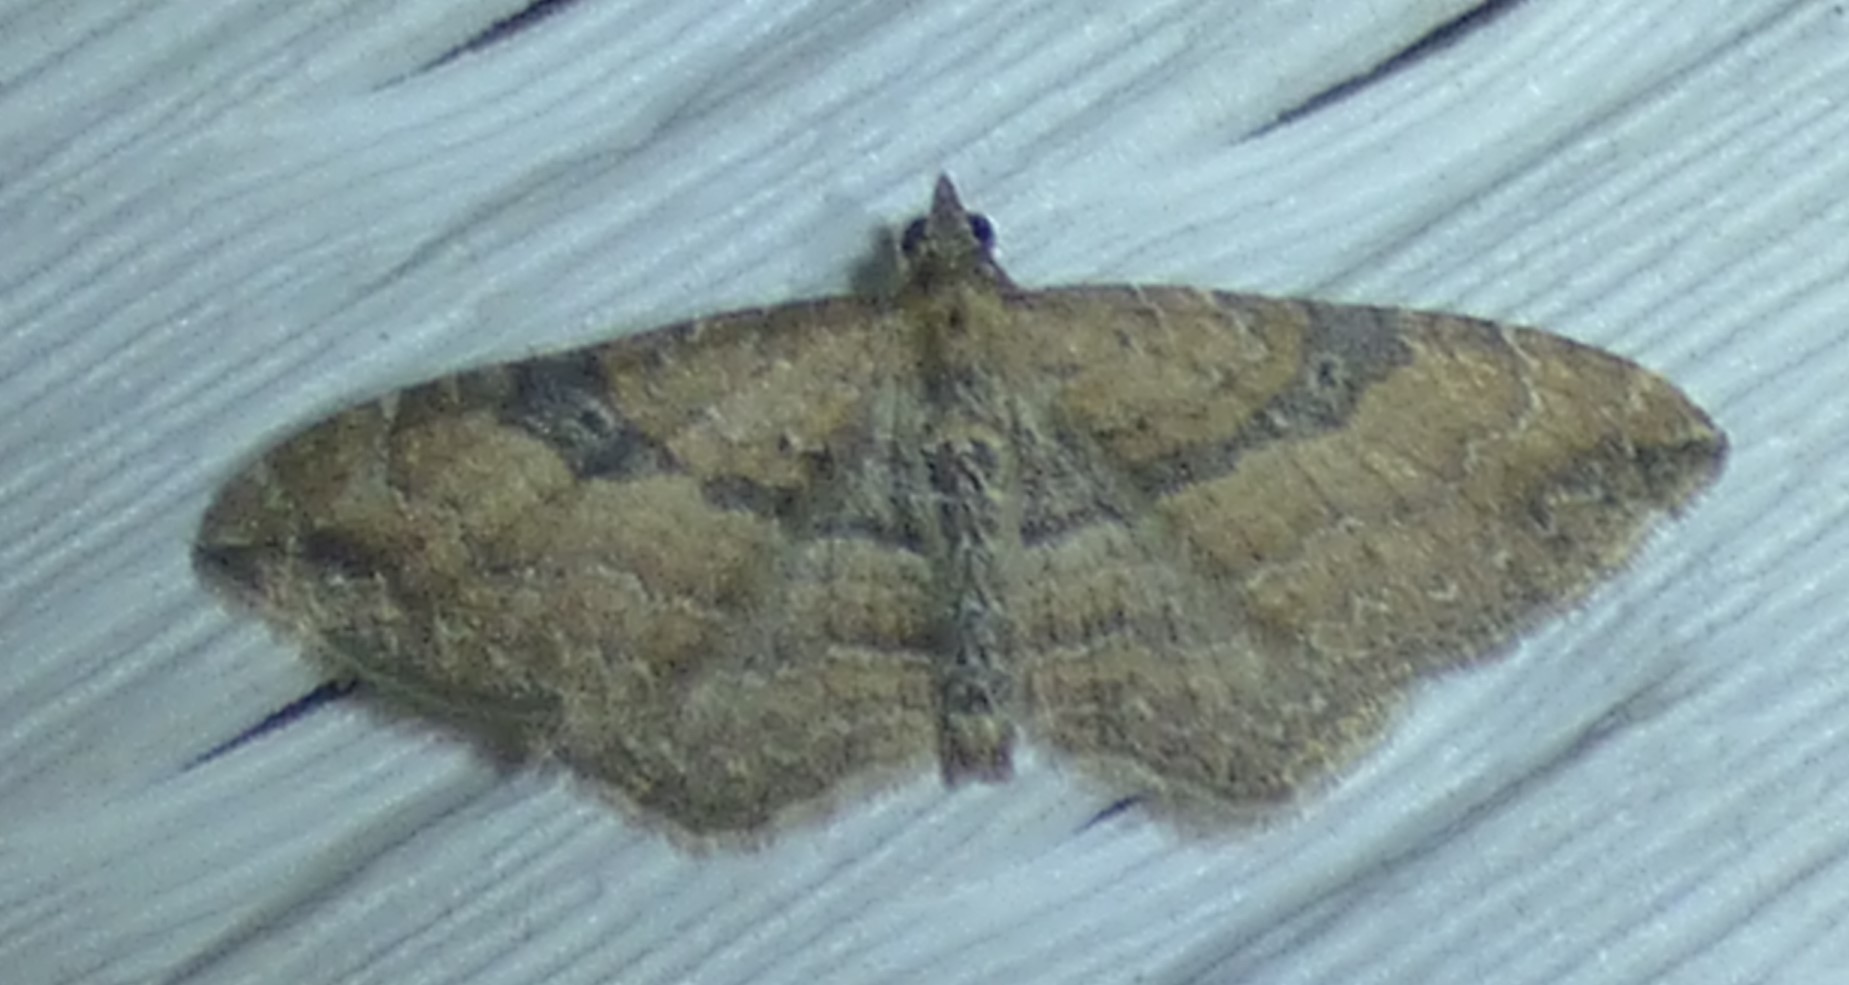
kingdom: Animalia
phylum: Arthropoda
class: Insecta
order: Lepidoptera
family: Geometridae
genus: Orthonama
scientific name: Orthonama obstipata
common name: The gem
